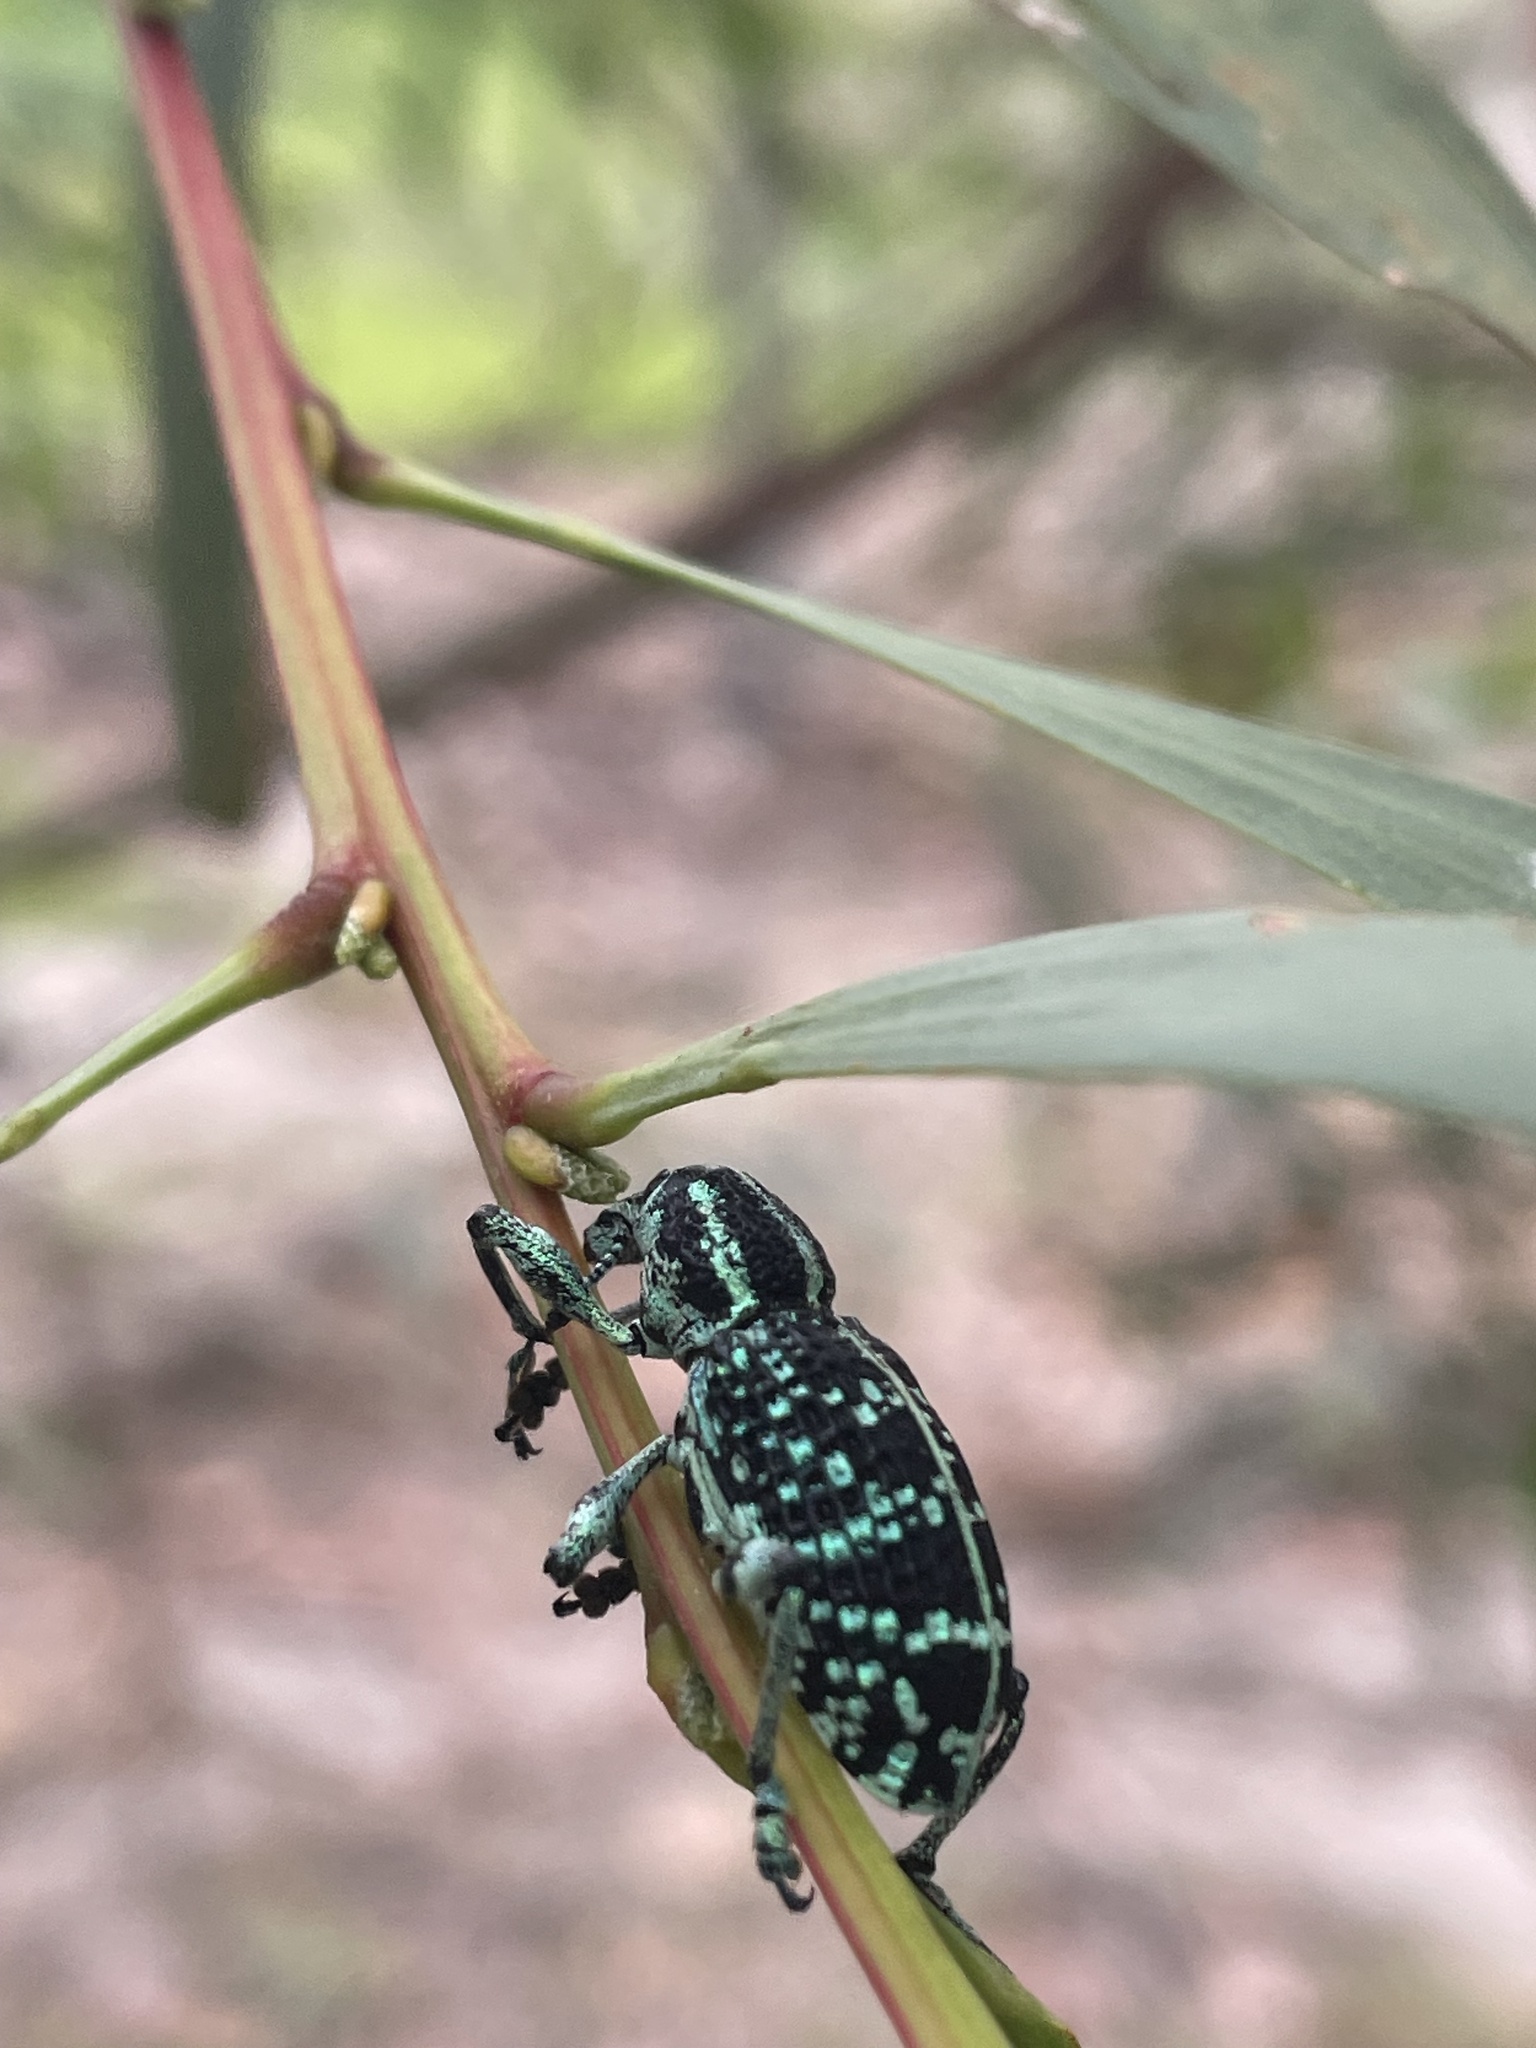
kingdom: Animalia
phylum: Arthropoda
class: Insecta
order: Coleoptera
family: Curculionidae
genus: Chrysolopus
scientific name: Chrysolopus spectabilis
